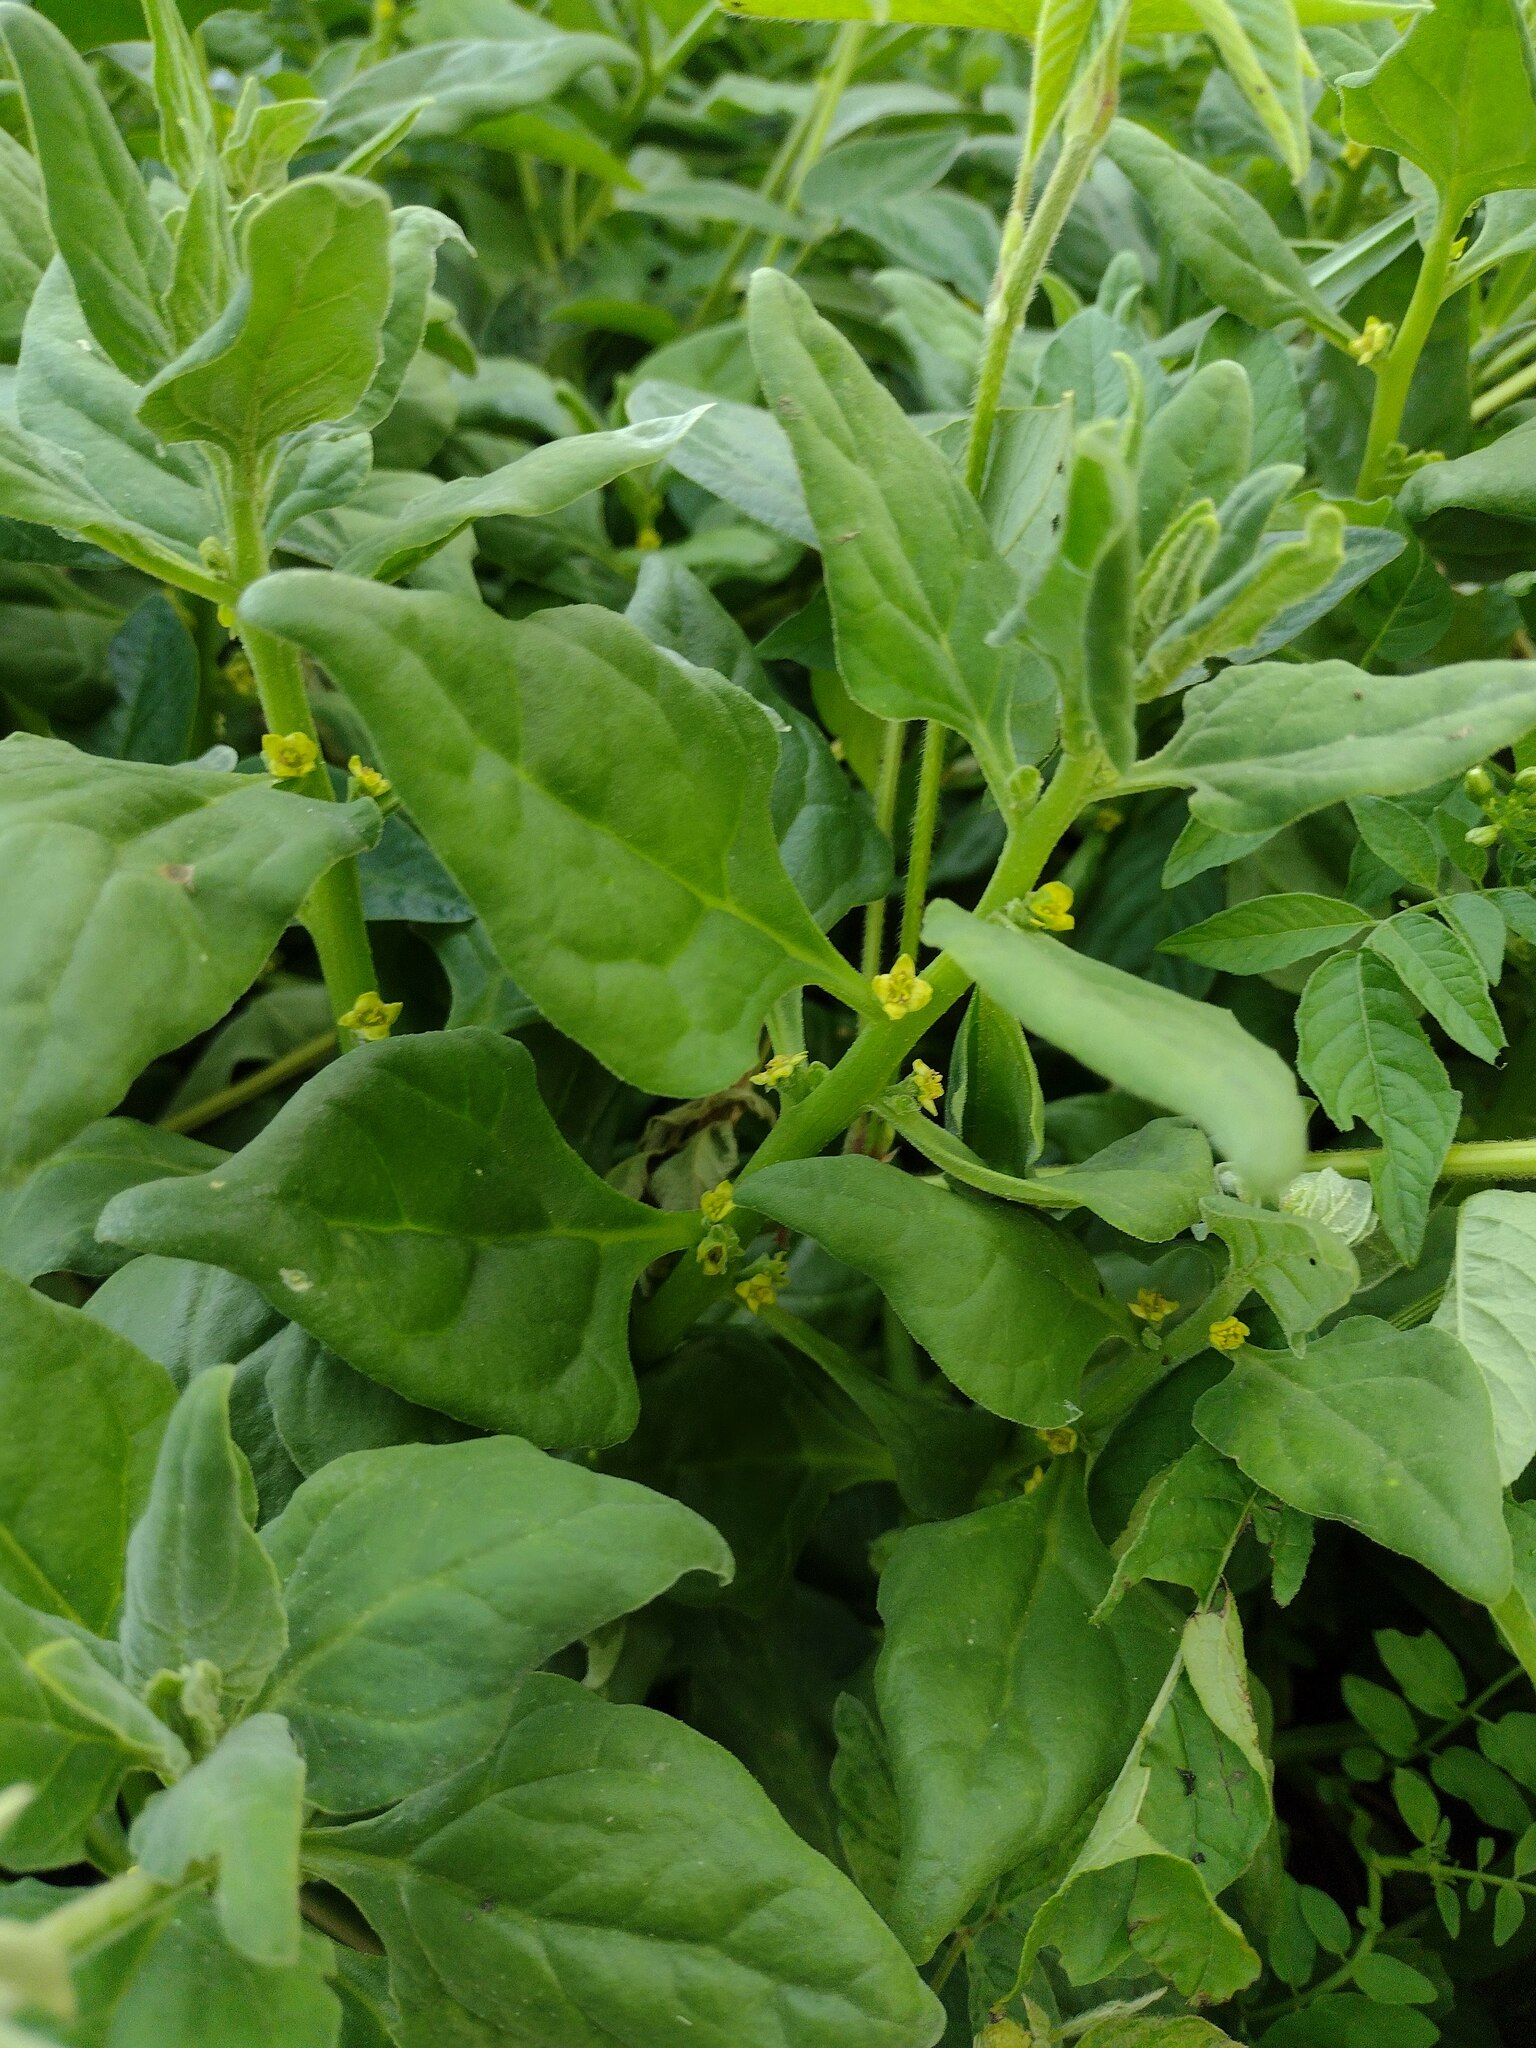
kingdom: Plantae
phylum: Tracheophyta
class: Magnoliopsida
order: Caryophyllales
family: Aizoaceae
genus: Tetragonia
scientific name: Tetragonia tetragonoides
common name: New zealand-spinach
